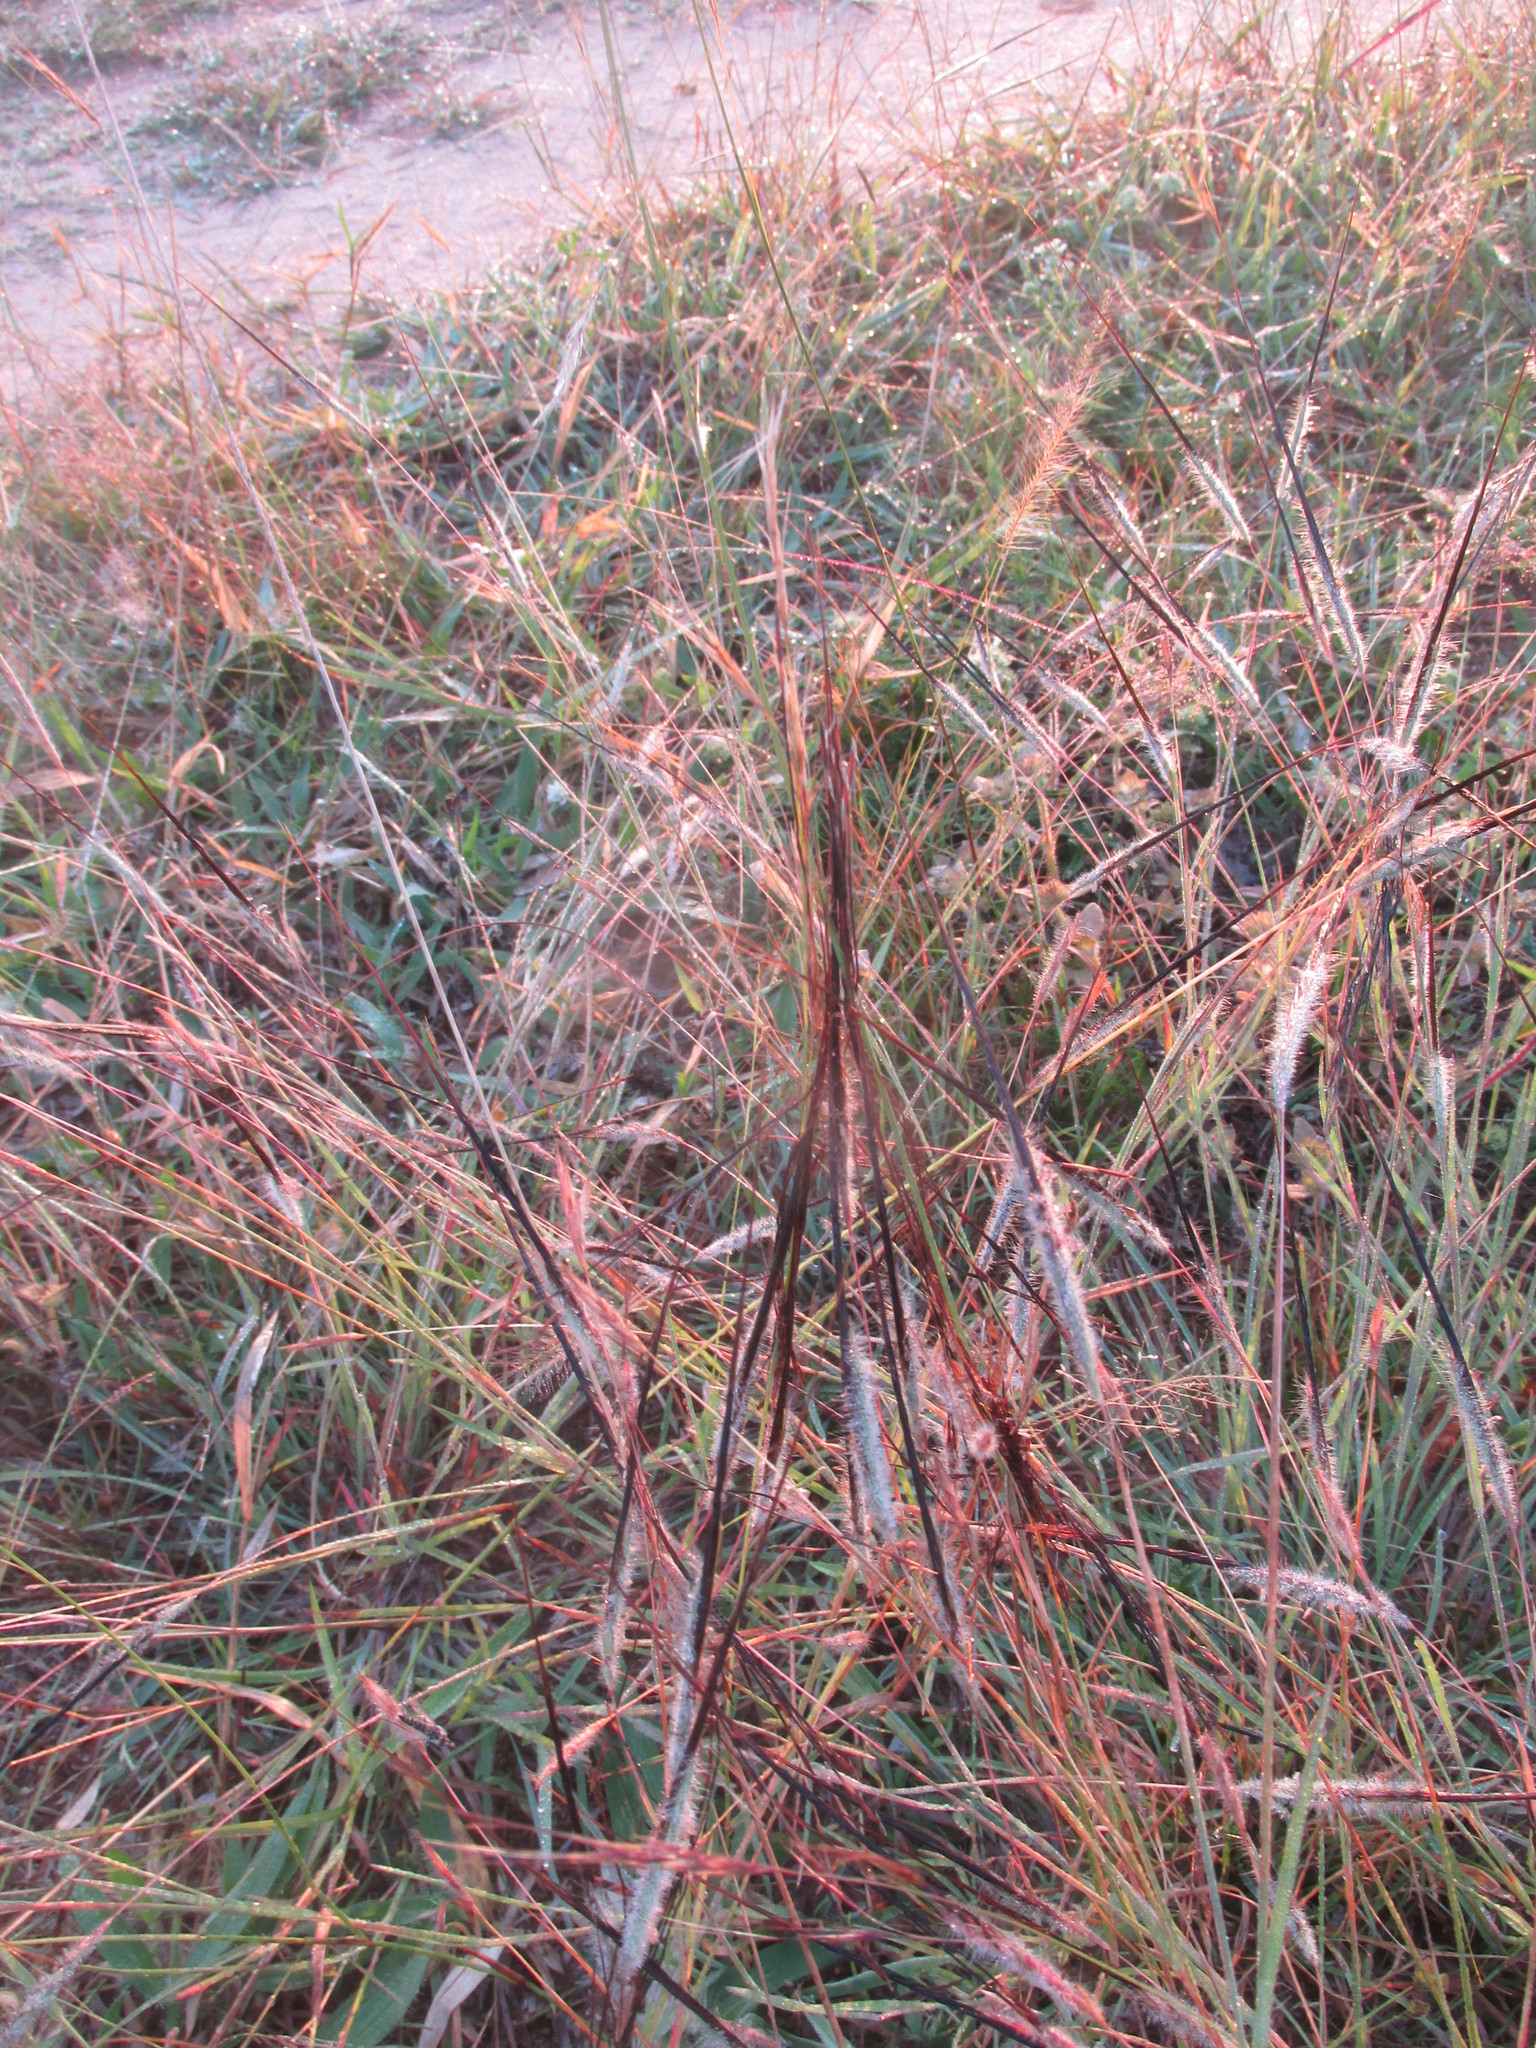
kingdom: Plantae
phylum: Tracheophyta
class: Liliopsida
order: Poales
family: Poaceae
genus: Heteropogon
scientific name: Heteropogon contortus
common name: Tanglehead
